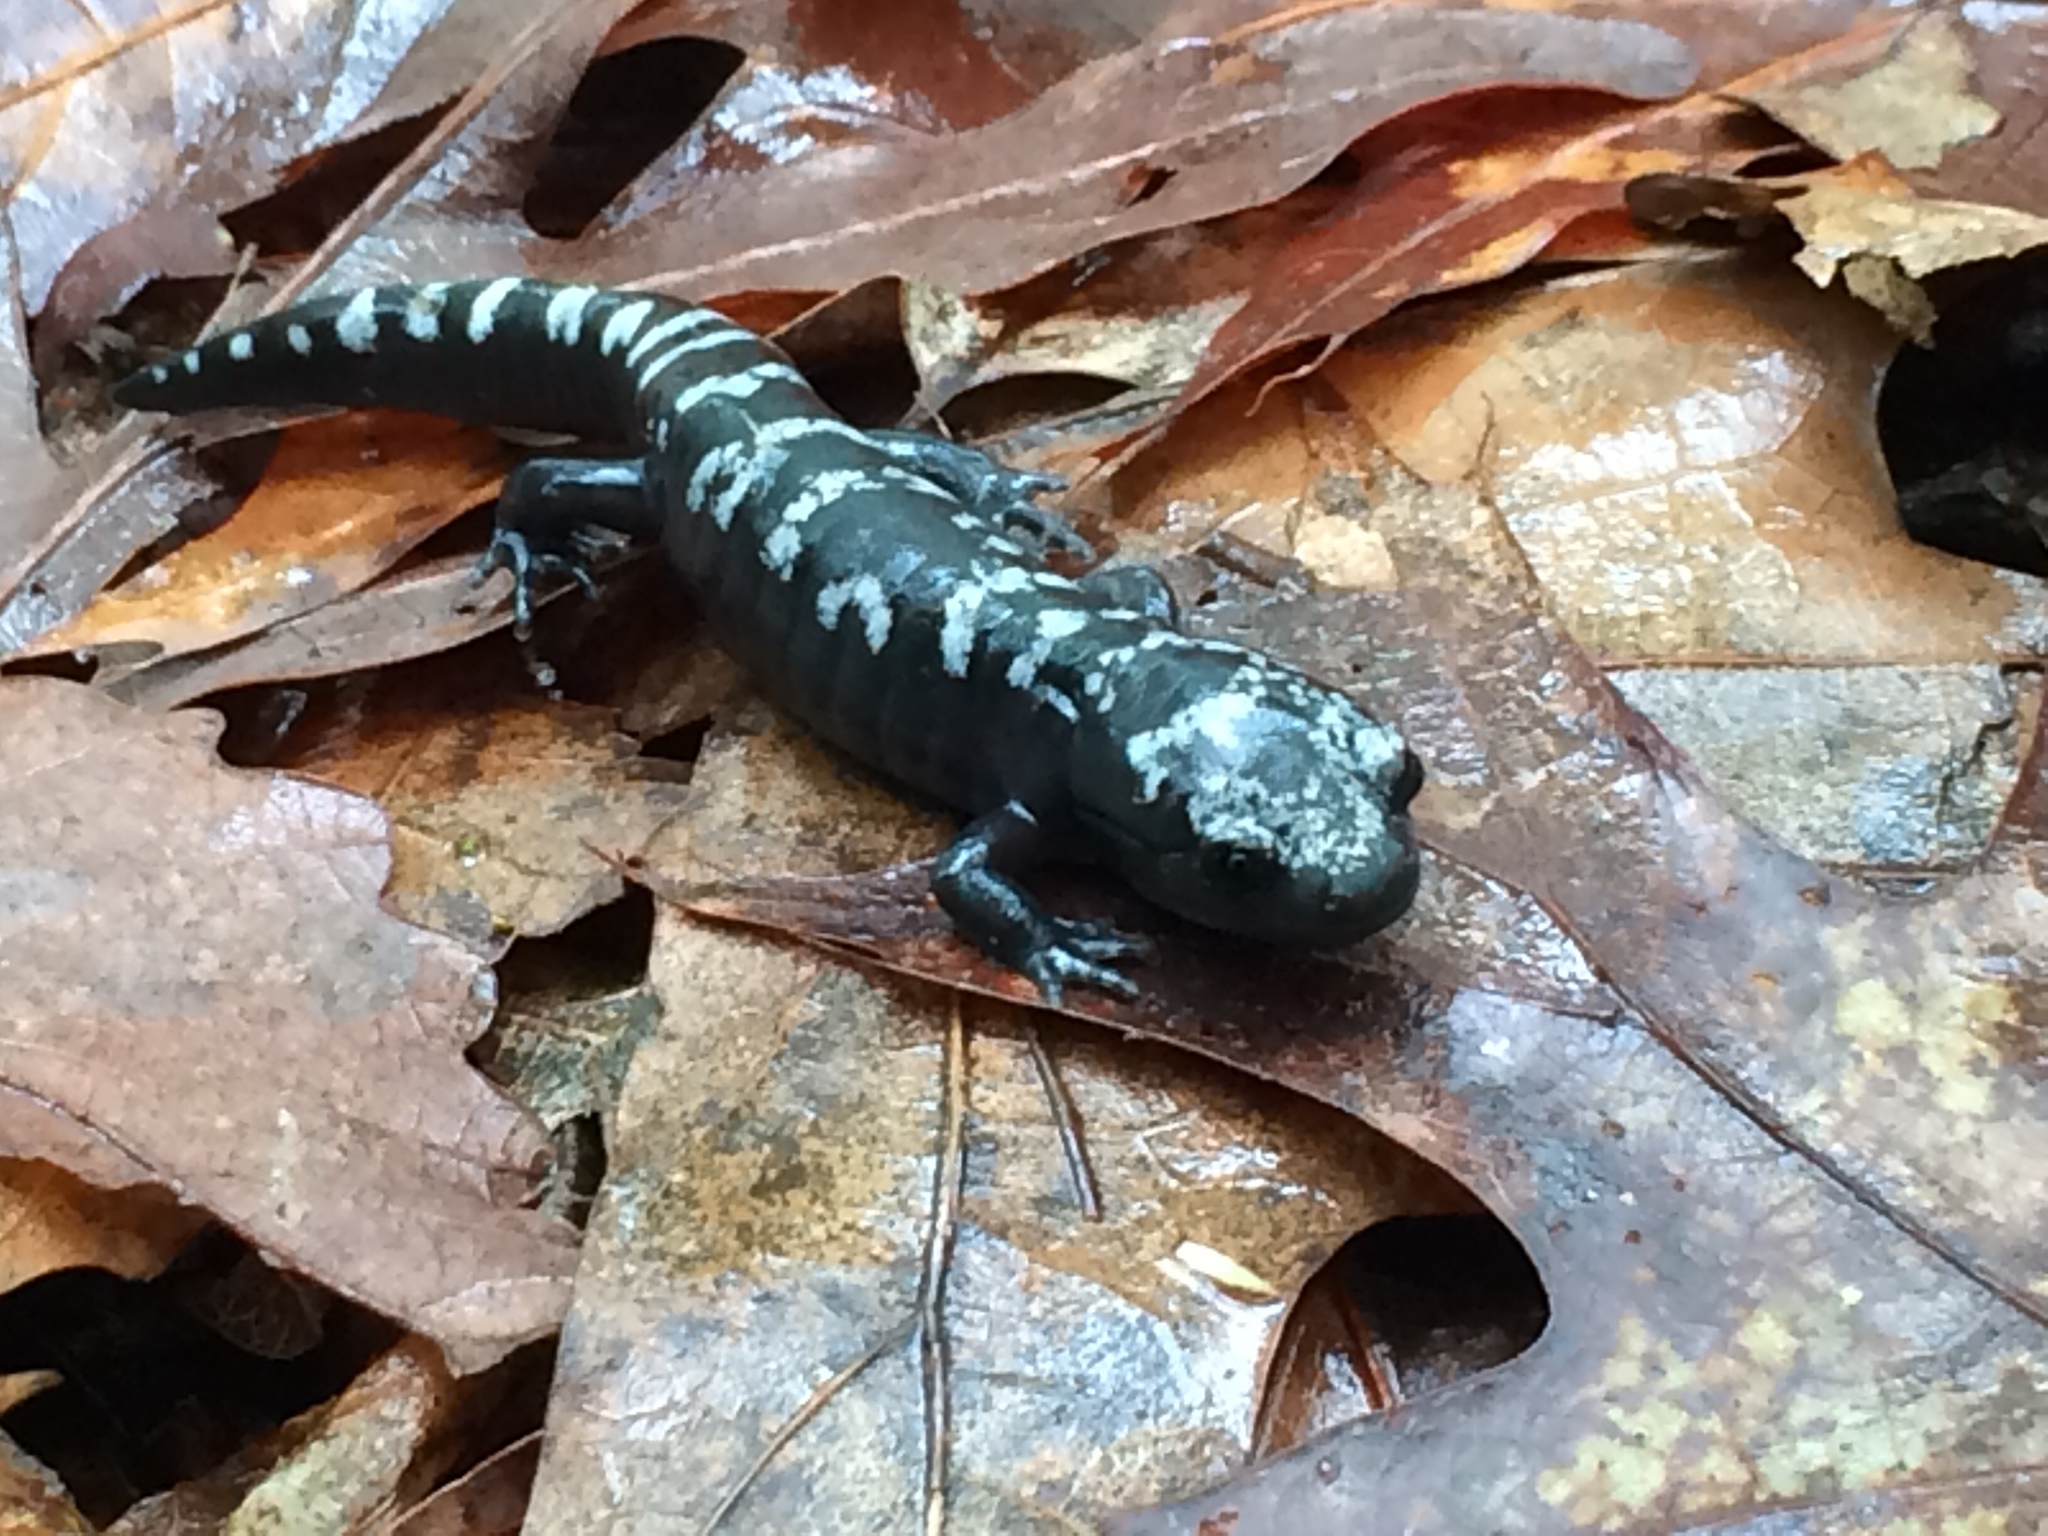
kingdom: Animalia
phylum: Chordata
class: Amphibia
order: Caudata
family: Ambystomatidae
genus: Ambystoma
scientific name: Ambystoma opacum
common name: Marbled salamander
